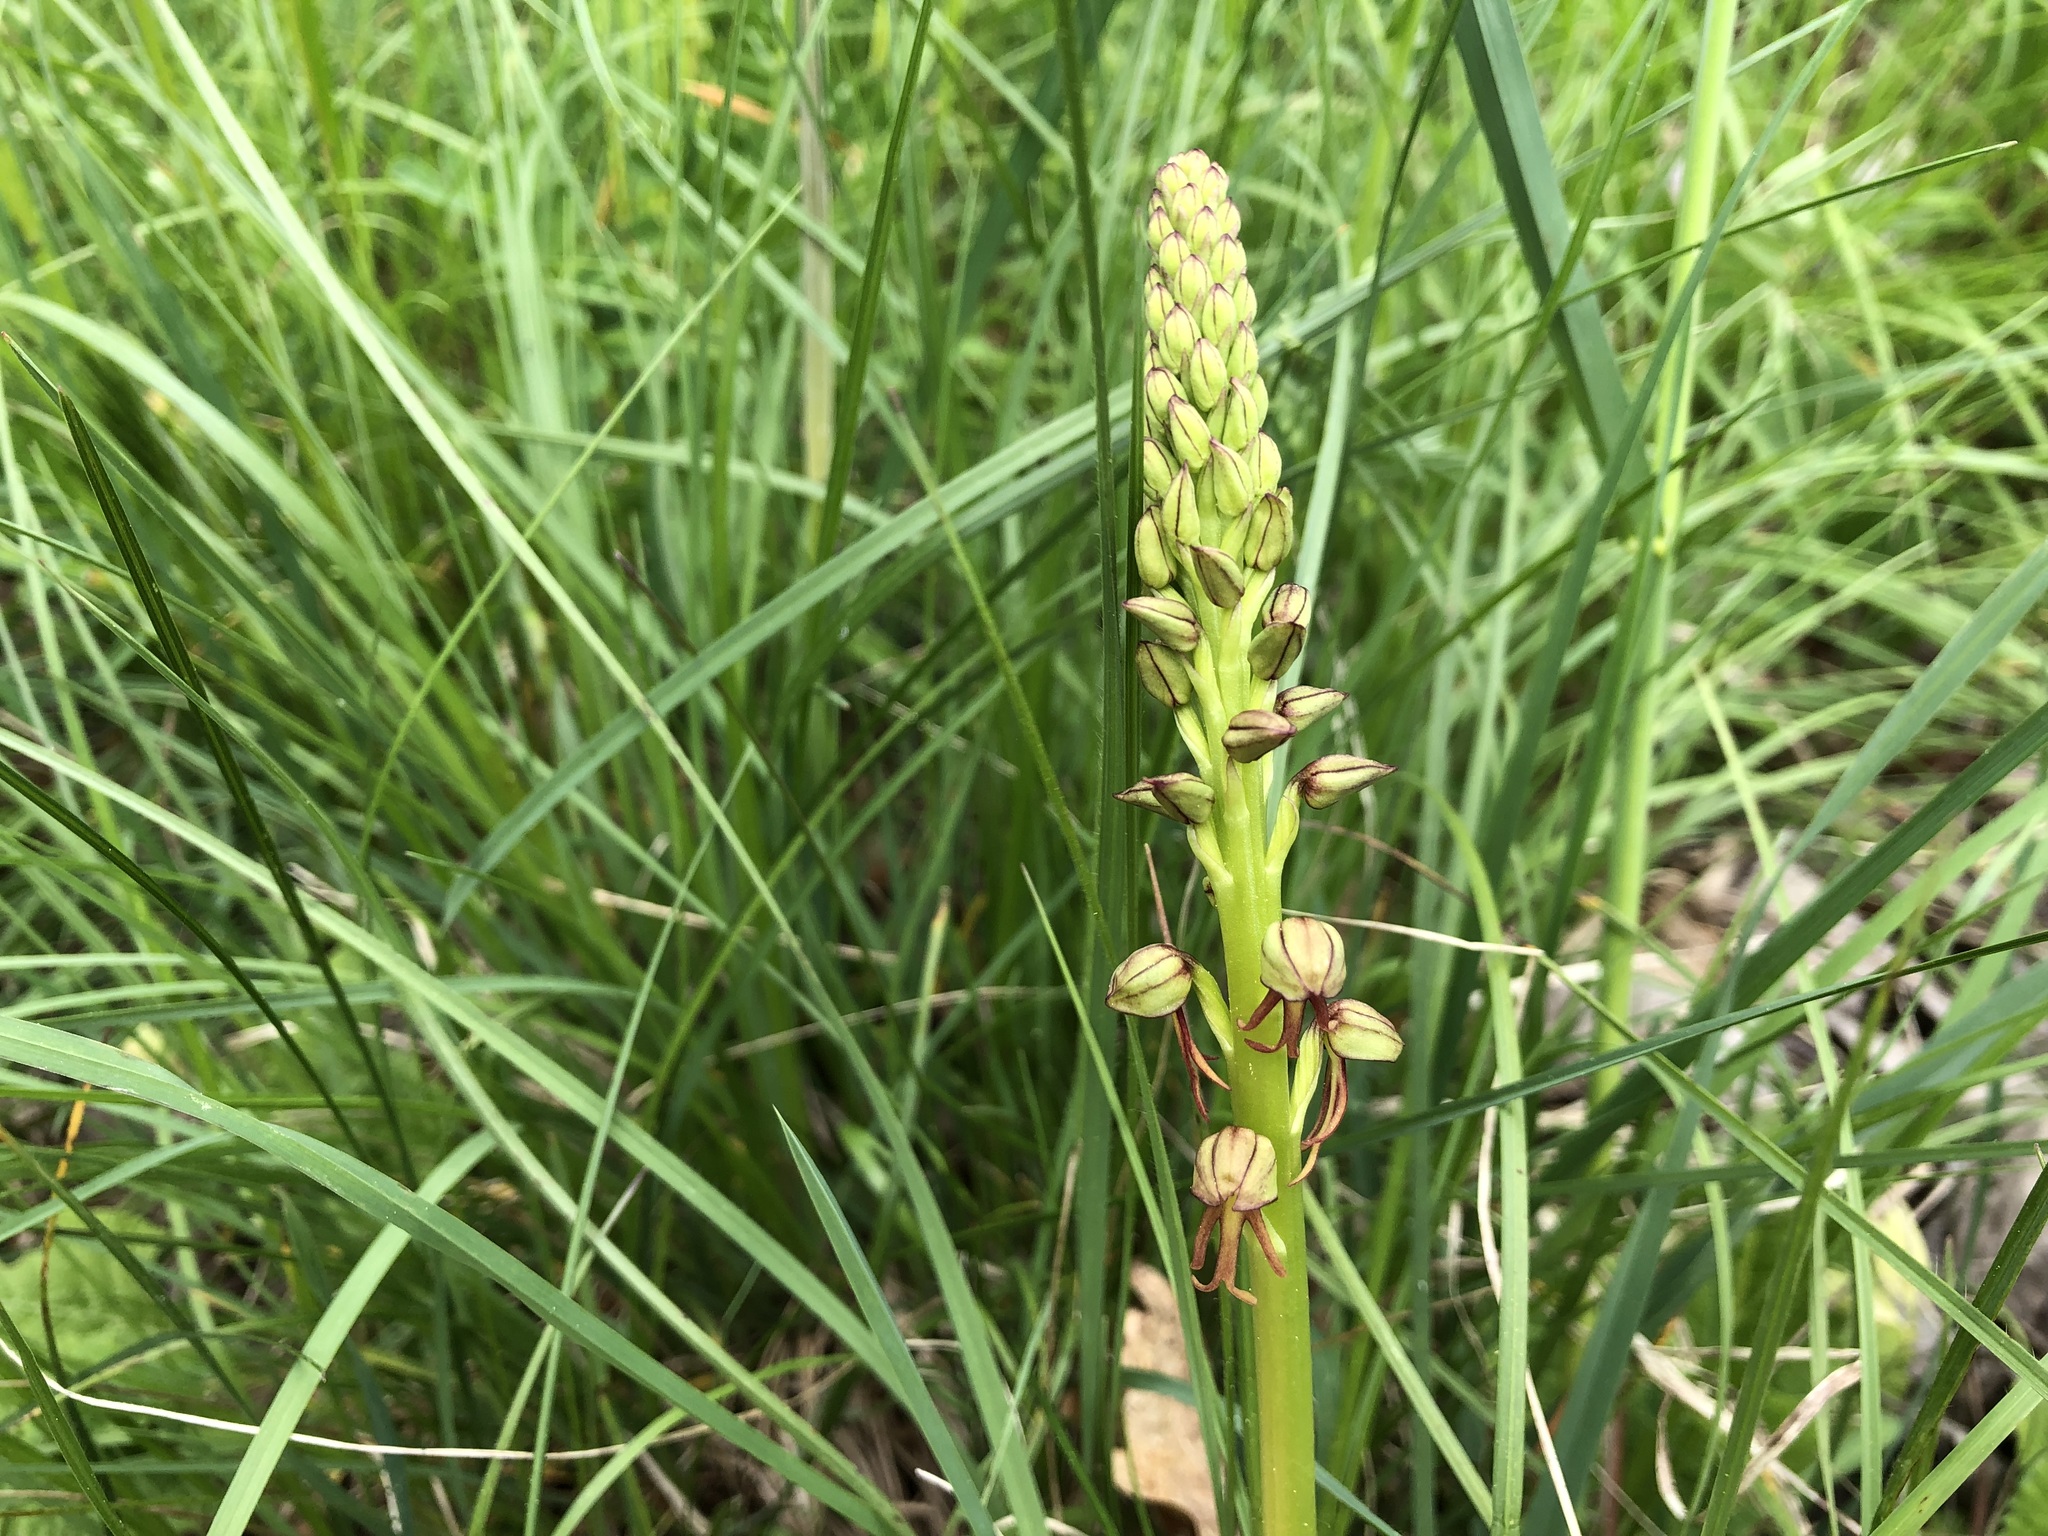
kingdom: Plantae
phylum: Tracheophyta
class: Liliopsida
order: Asparagales
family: Orchidaceae
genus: Orchis
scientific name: Orchis anthropophora
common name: Man orchid
